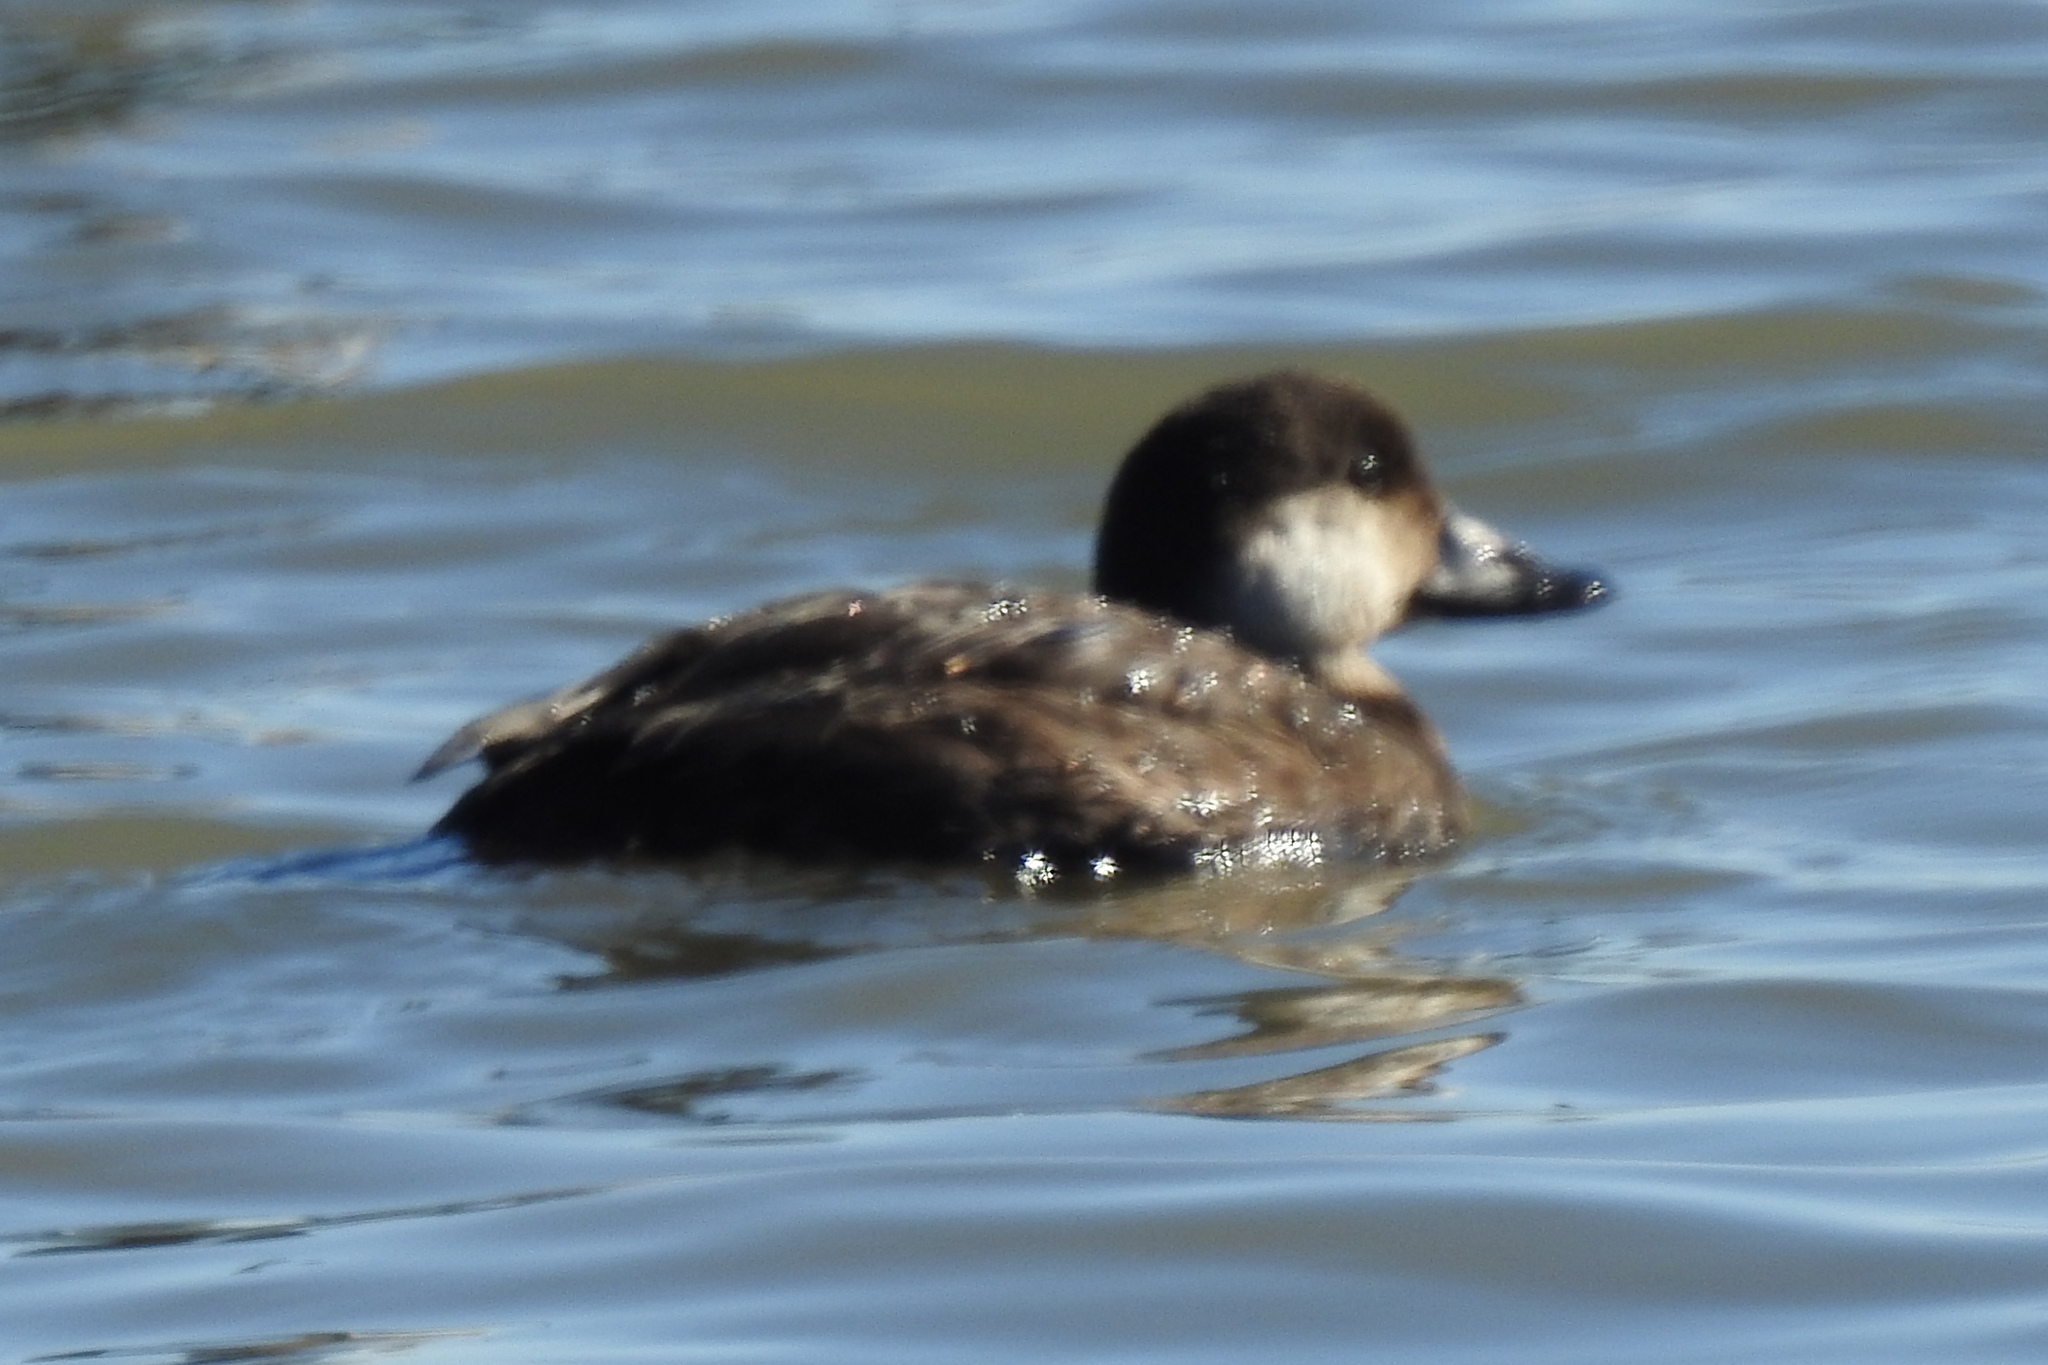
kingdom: Animalia
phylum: Chordata
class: Aves
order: Anseriformes
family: Anatidae
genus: Melanitta
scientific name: Melanitta americana
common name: Black scoter
